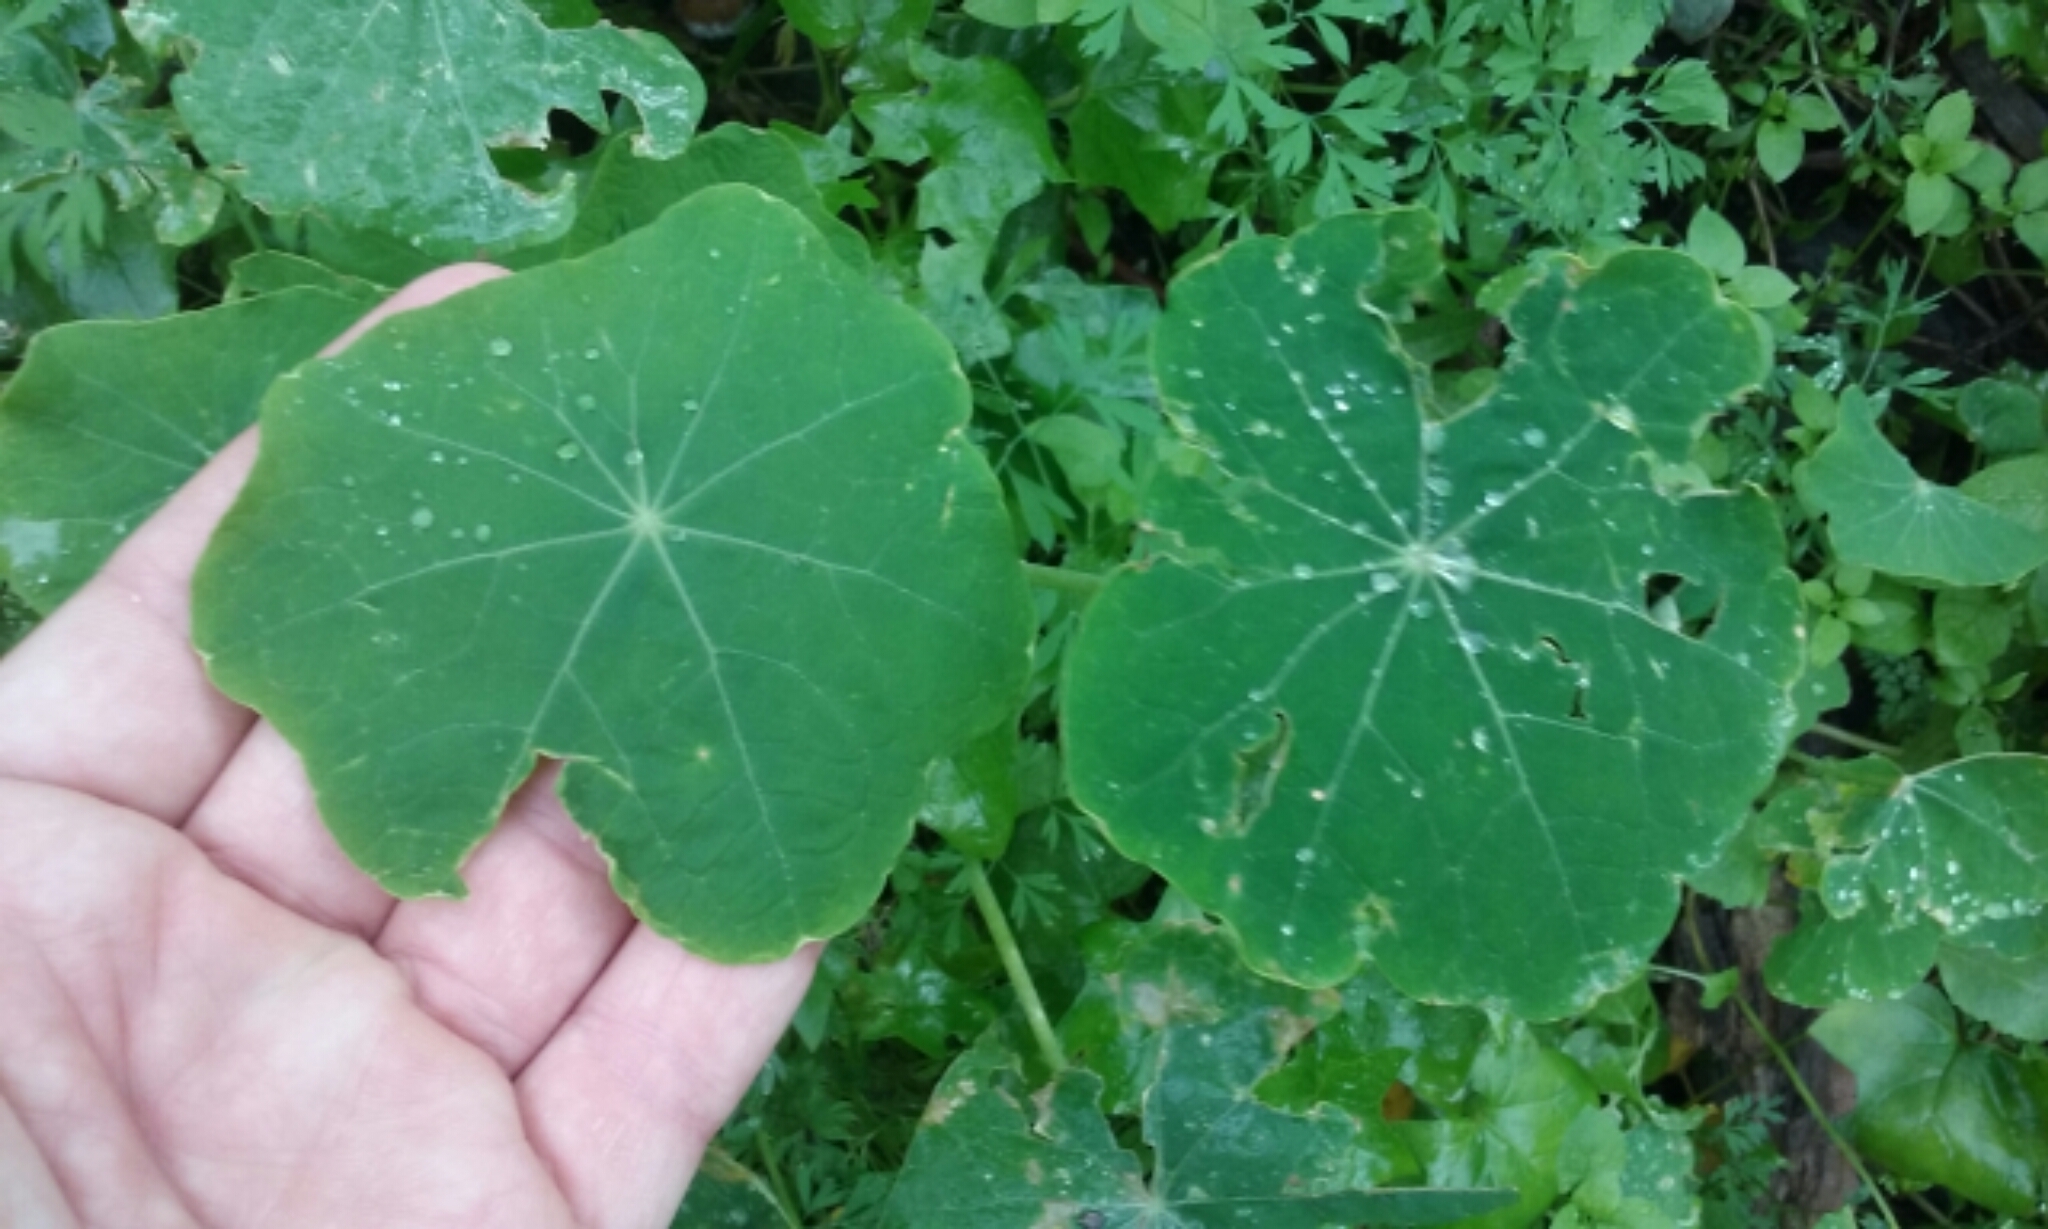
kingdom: Plantae
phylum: Tracheophyta
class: Magnoliopsida
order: Brassicales
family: Tropaeolaceae
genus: Tropaeolum
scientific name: Tropaeolum majus
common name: Nasturtium
